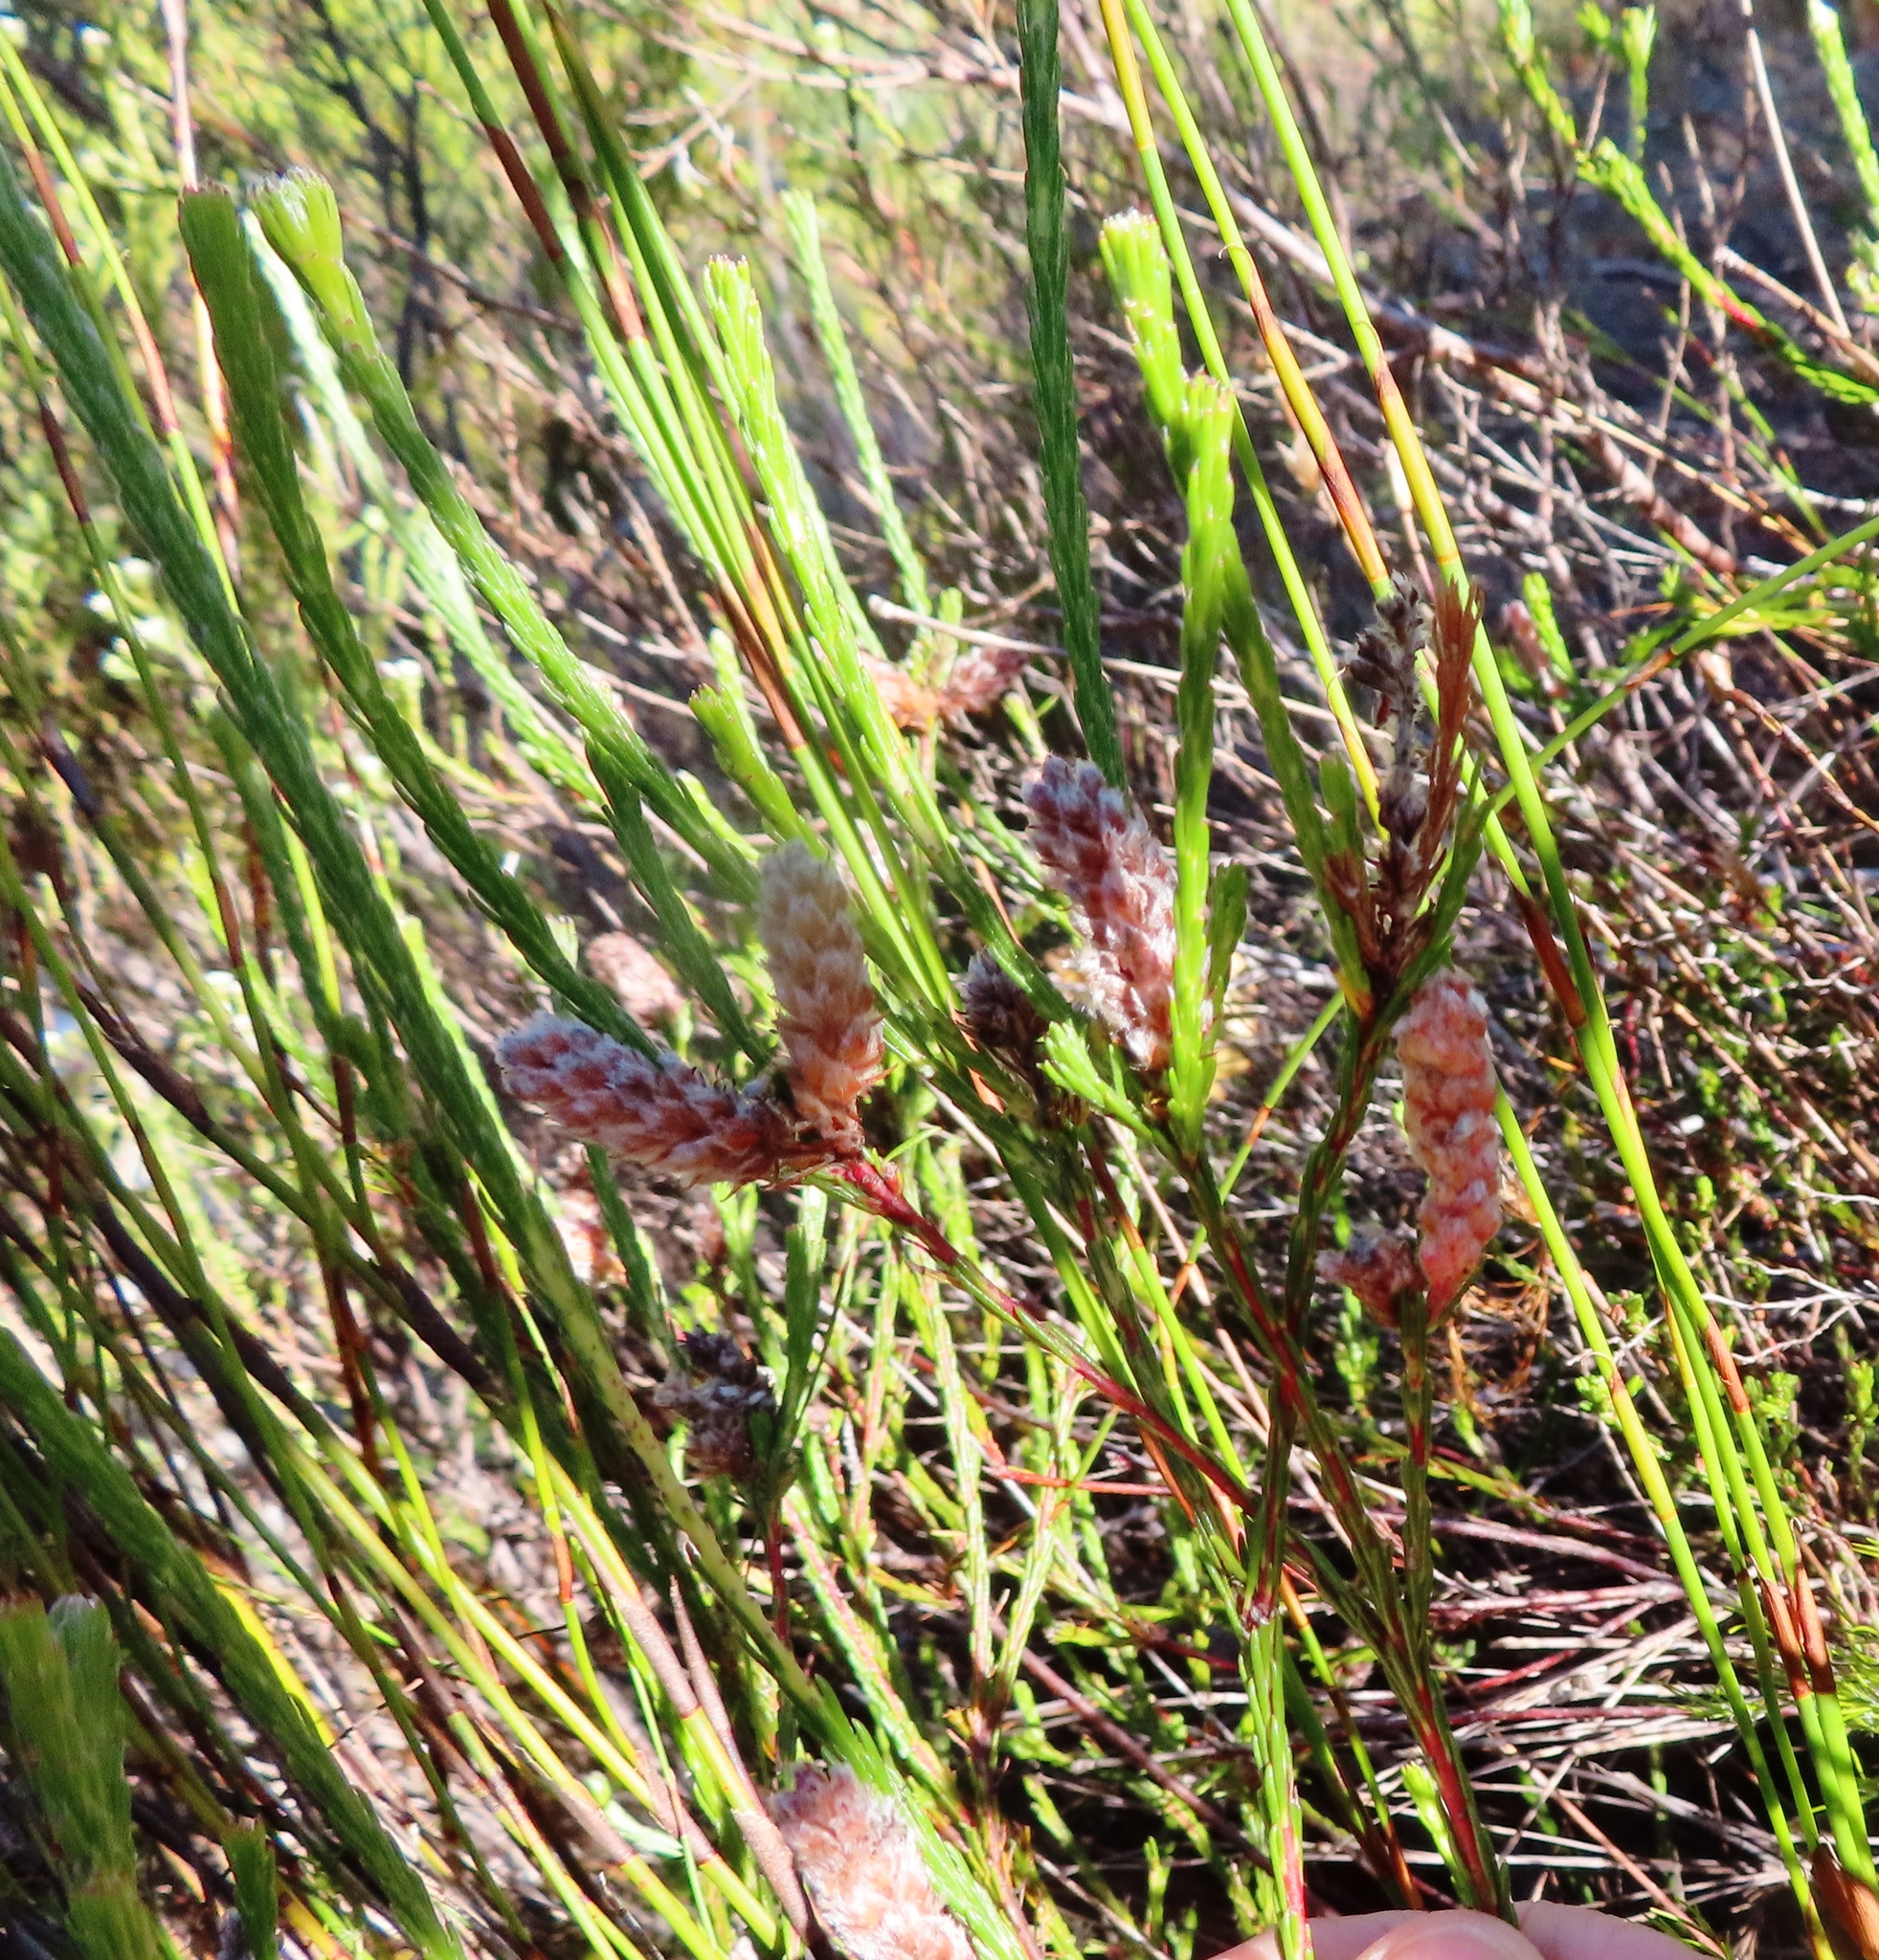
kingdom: Plantae
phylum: Tracheophyta
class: Magnoliopsida
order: Proteales
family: Proteaceae
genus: Spatalla
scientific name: Spatalla ericoides
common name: Erica-leaf spoon
